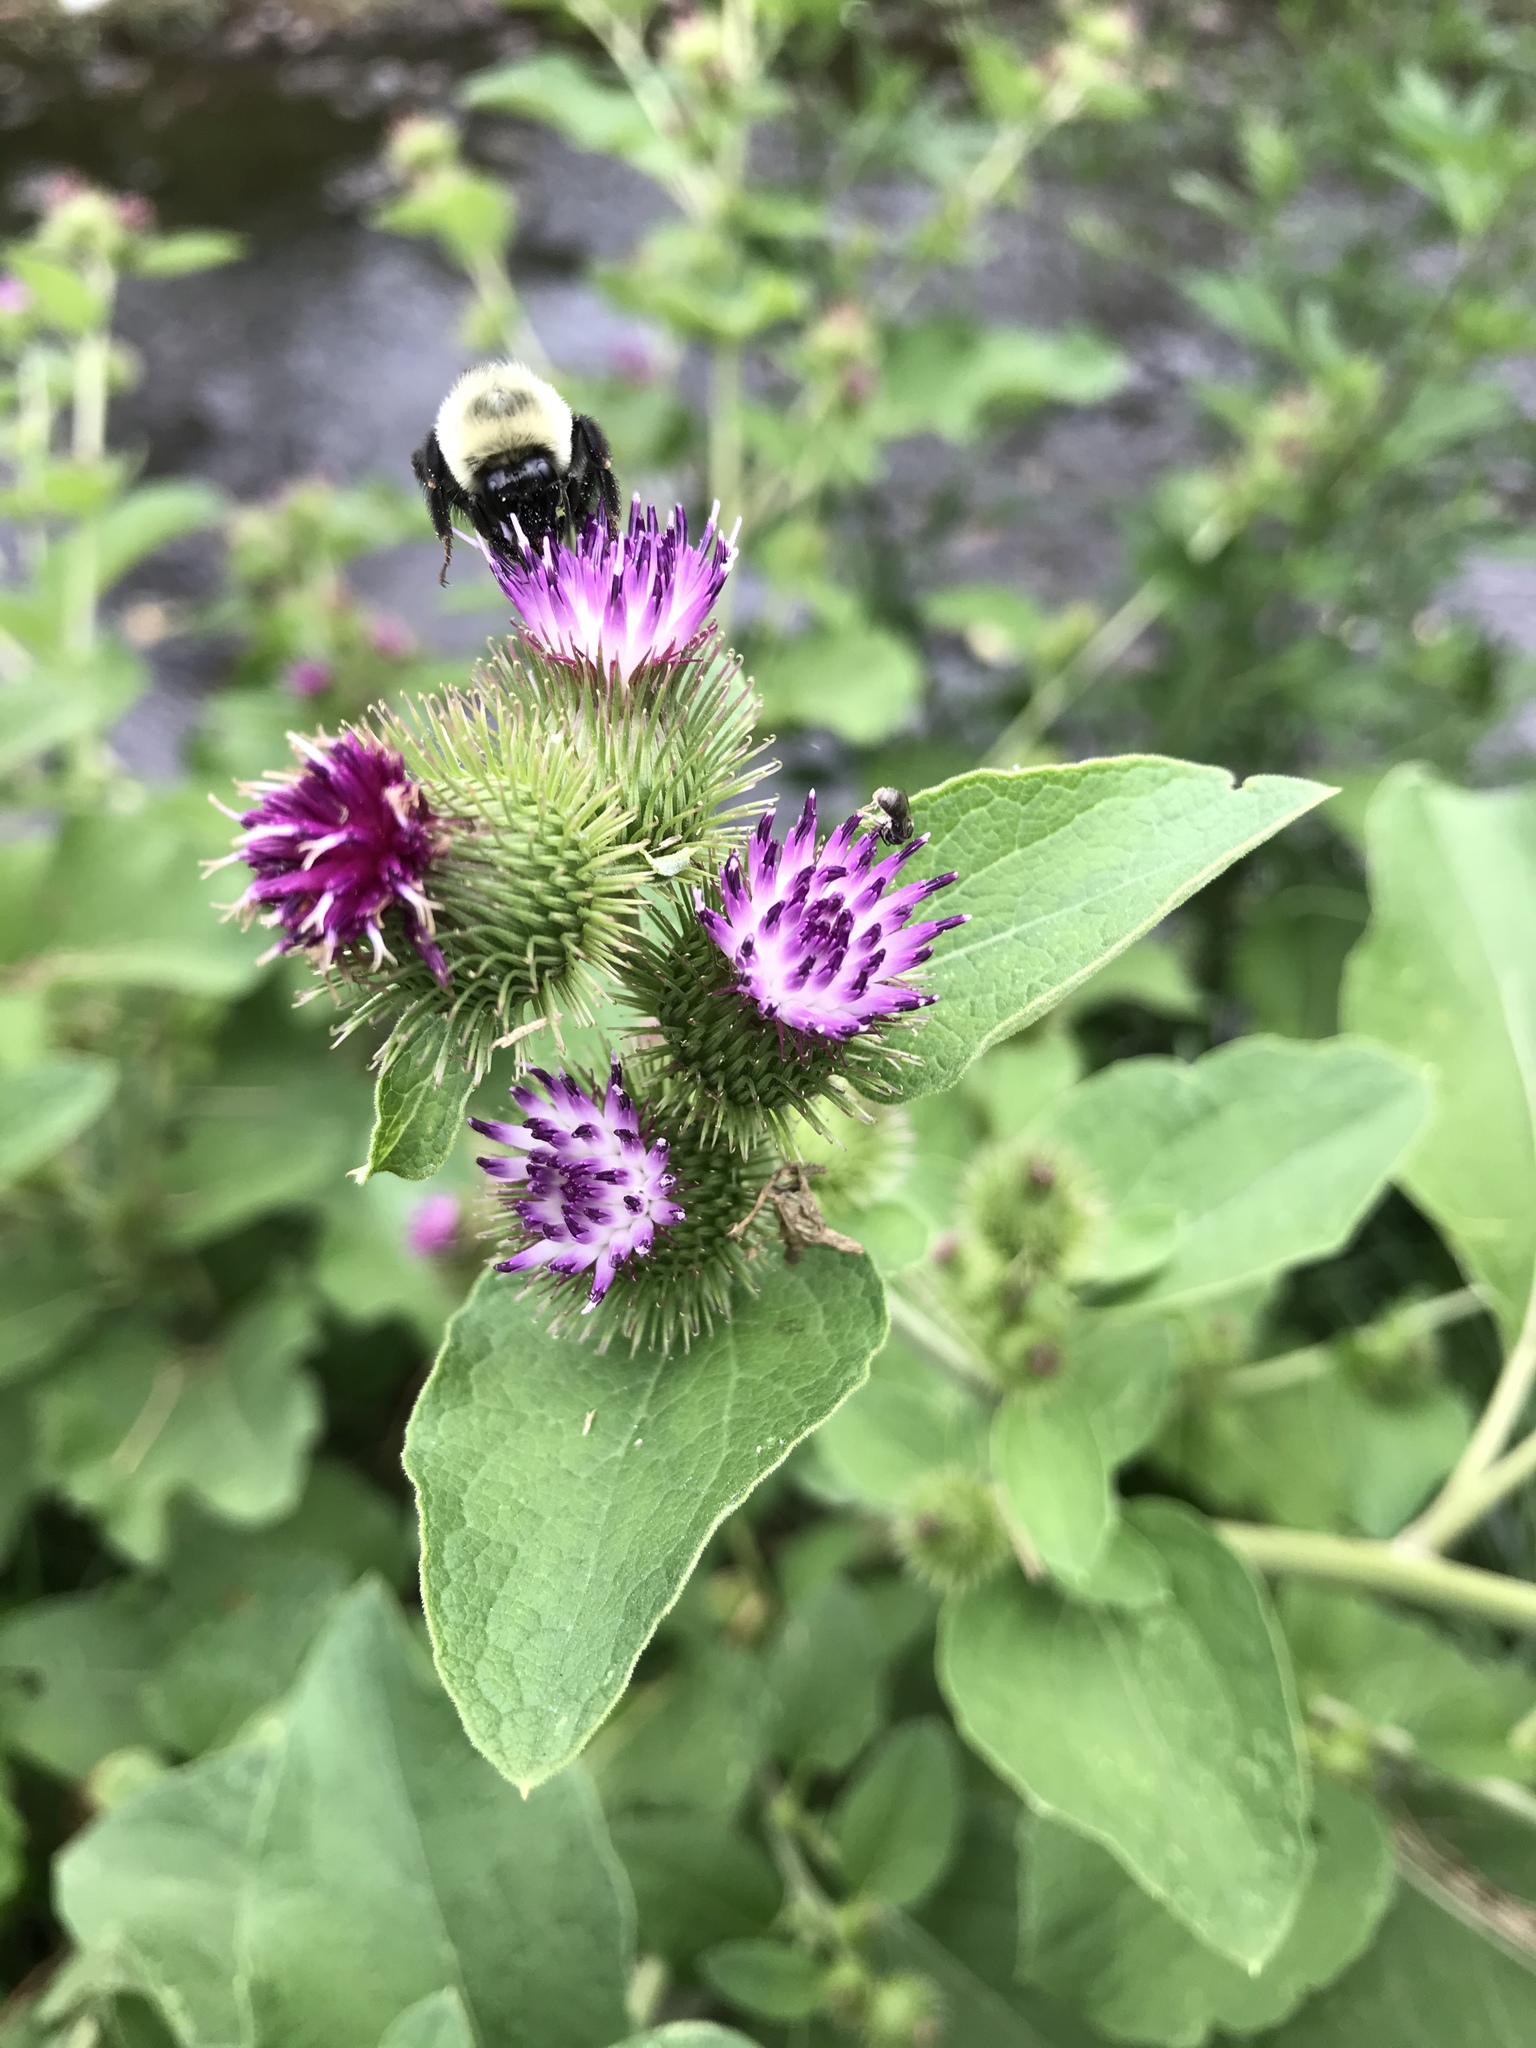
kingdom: Plantae
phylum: Tracheophyta
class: Magnoliopsida
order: Asterales
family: Asteraceae
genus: Arctium
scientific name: Arctium minus
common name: Lesser burdock
